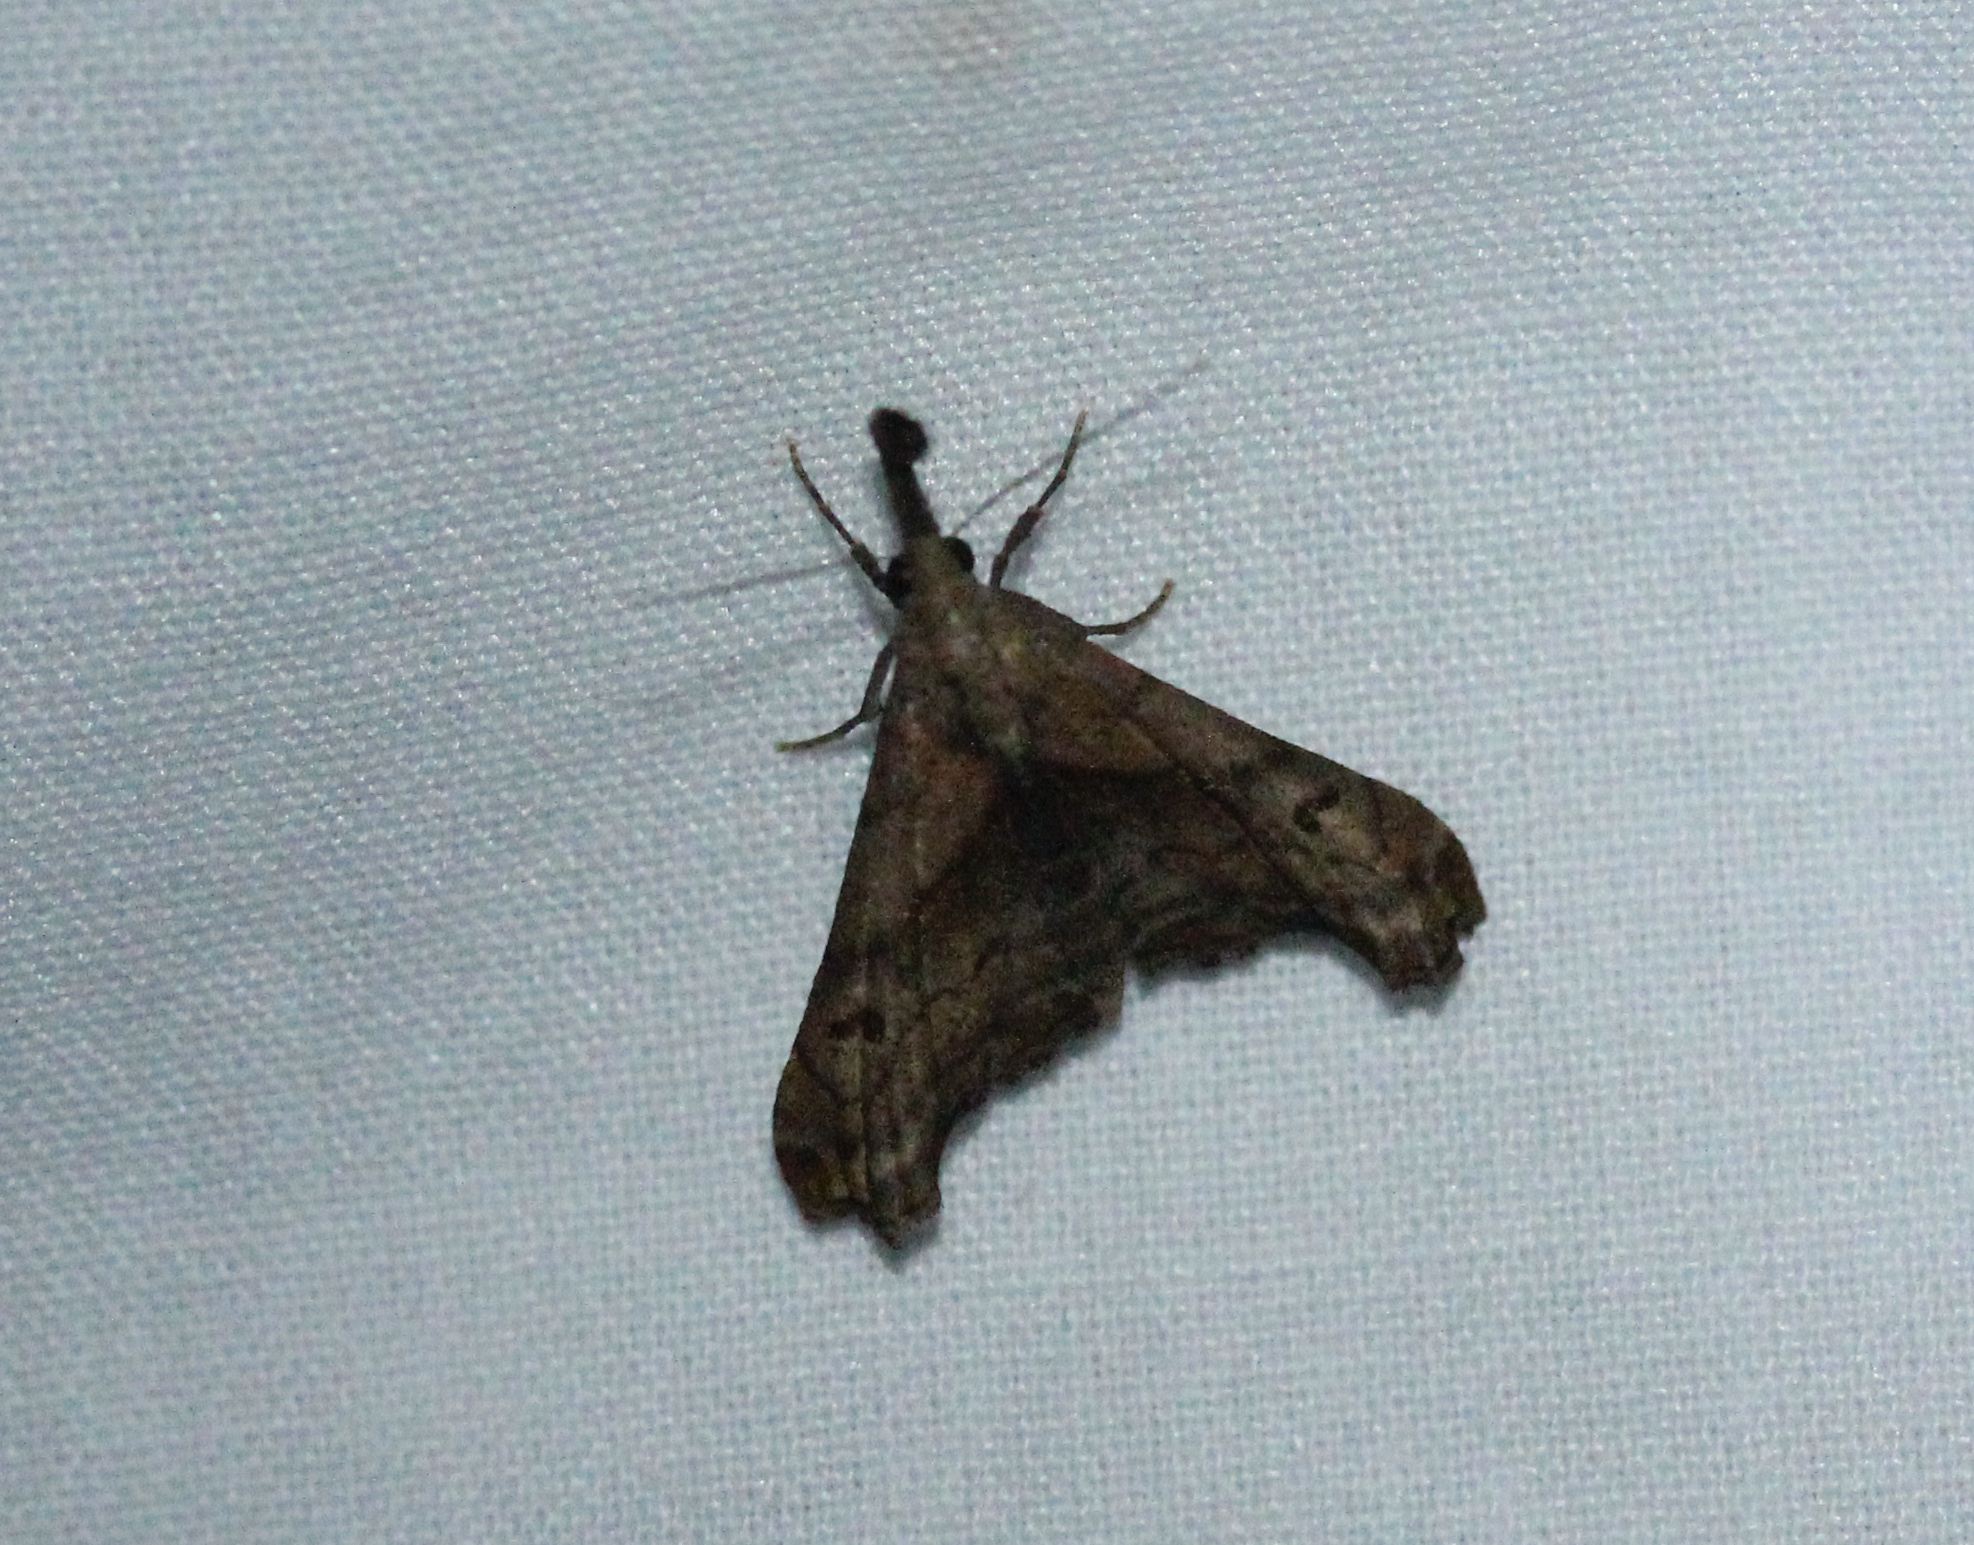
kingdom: Animalia
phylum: Arthropoda
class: Insecta
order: Lepidoptera
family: Erebidae
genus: Palthis
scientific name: Palthis angulalis
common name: Dark-spotted palthis moth
